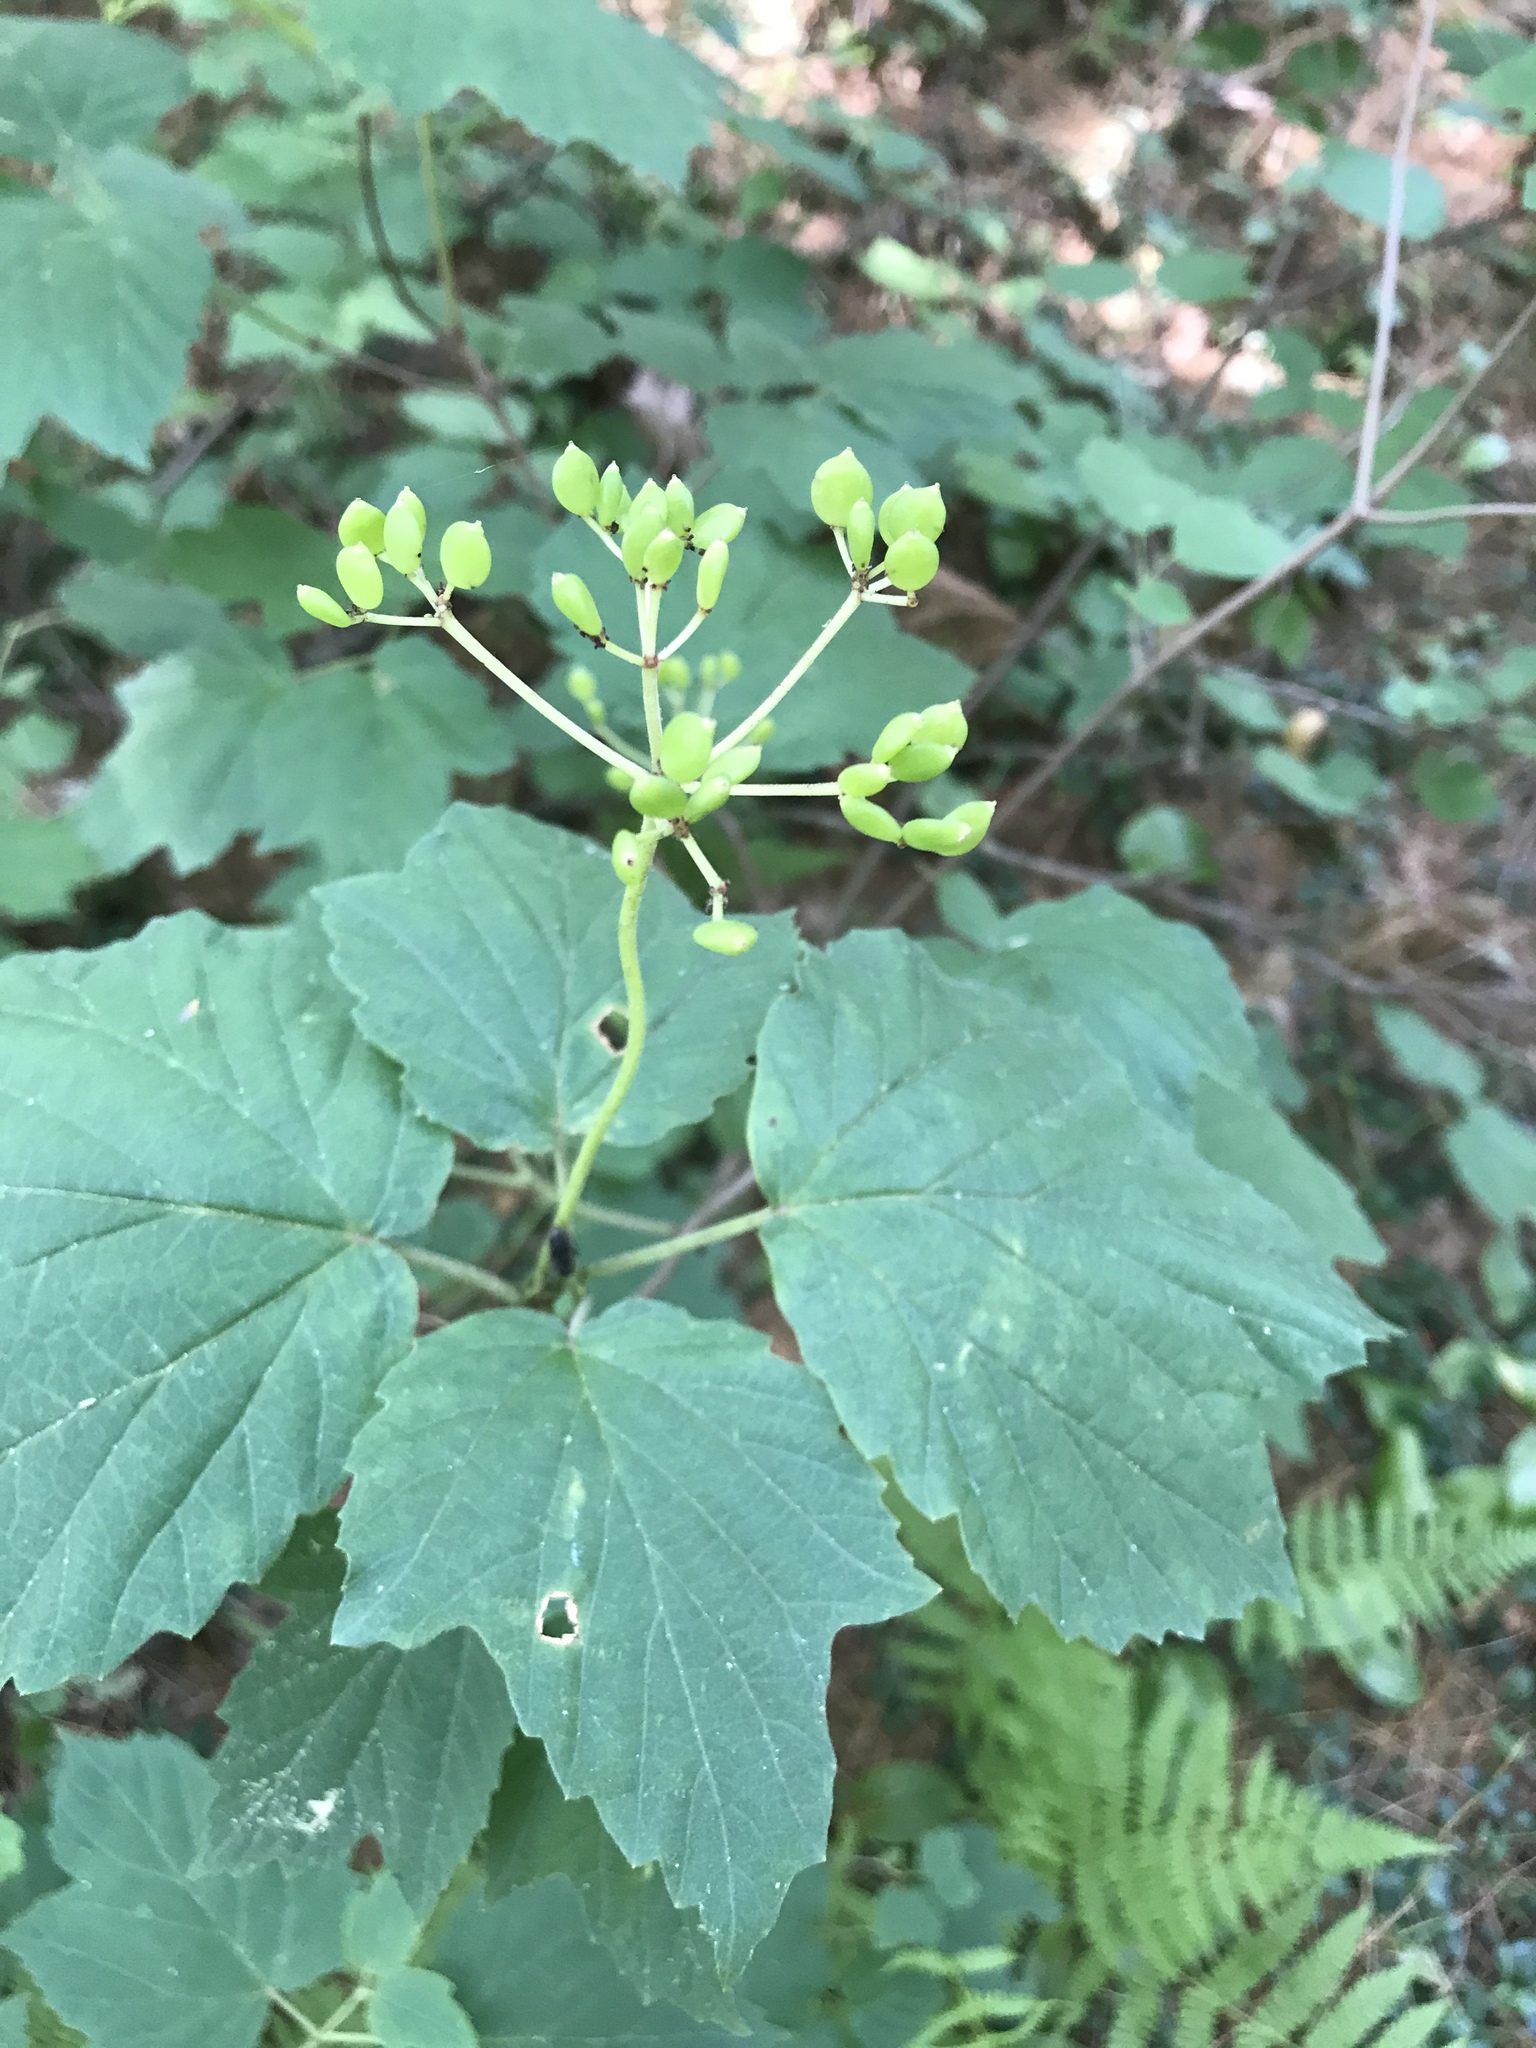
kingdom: Plantae
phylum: Tracheophyta
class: Magnoliopsida
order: Dipsacales
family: Viburnaceae
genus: Viburnum
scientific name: Viburnum acerifolium
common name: Dockmackie
